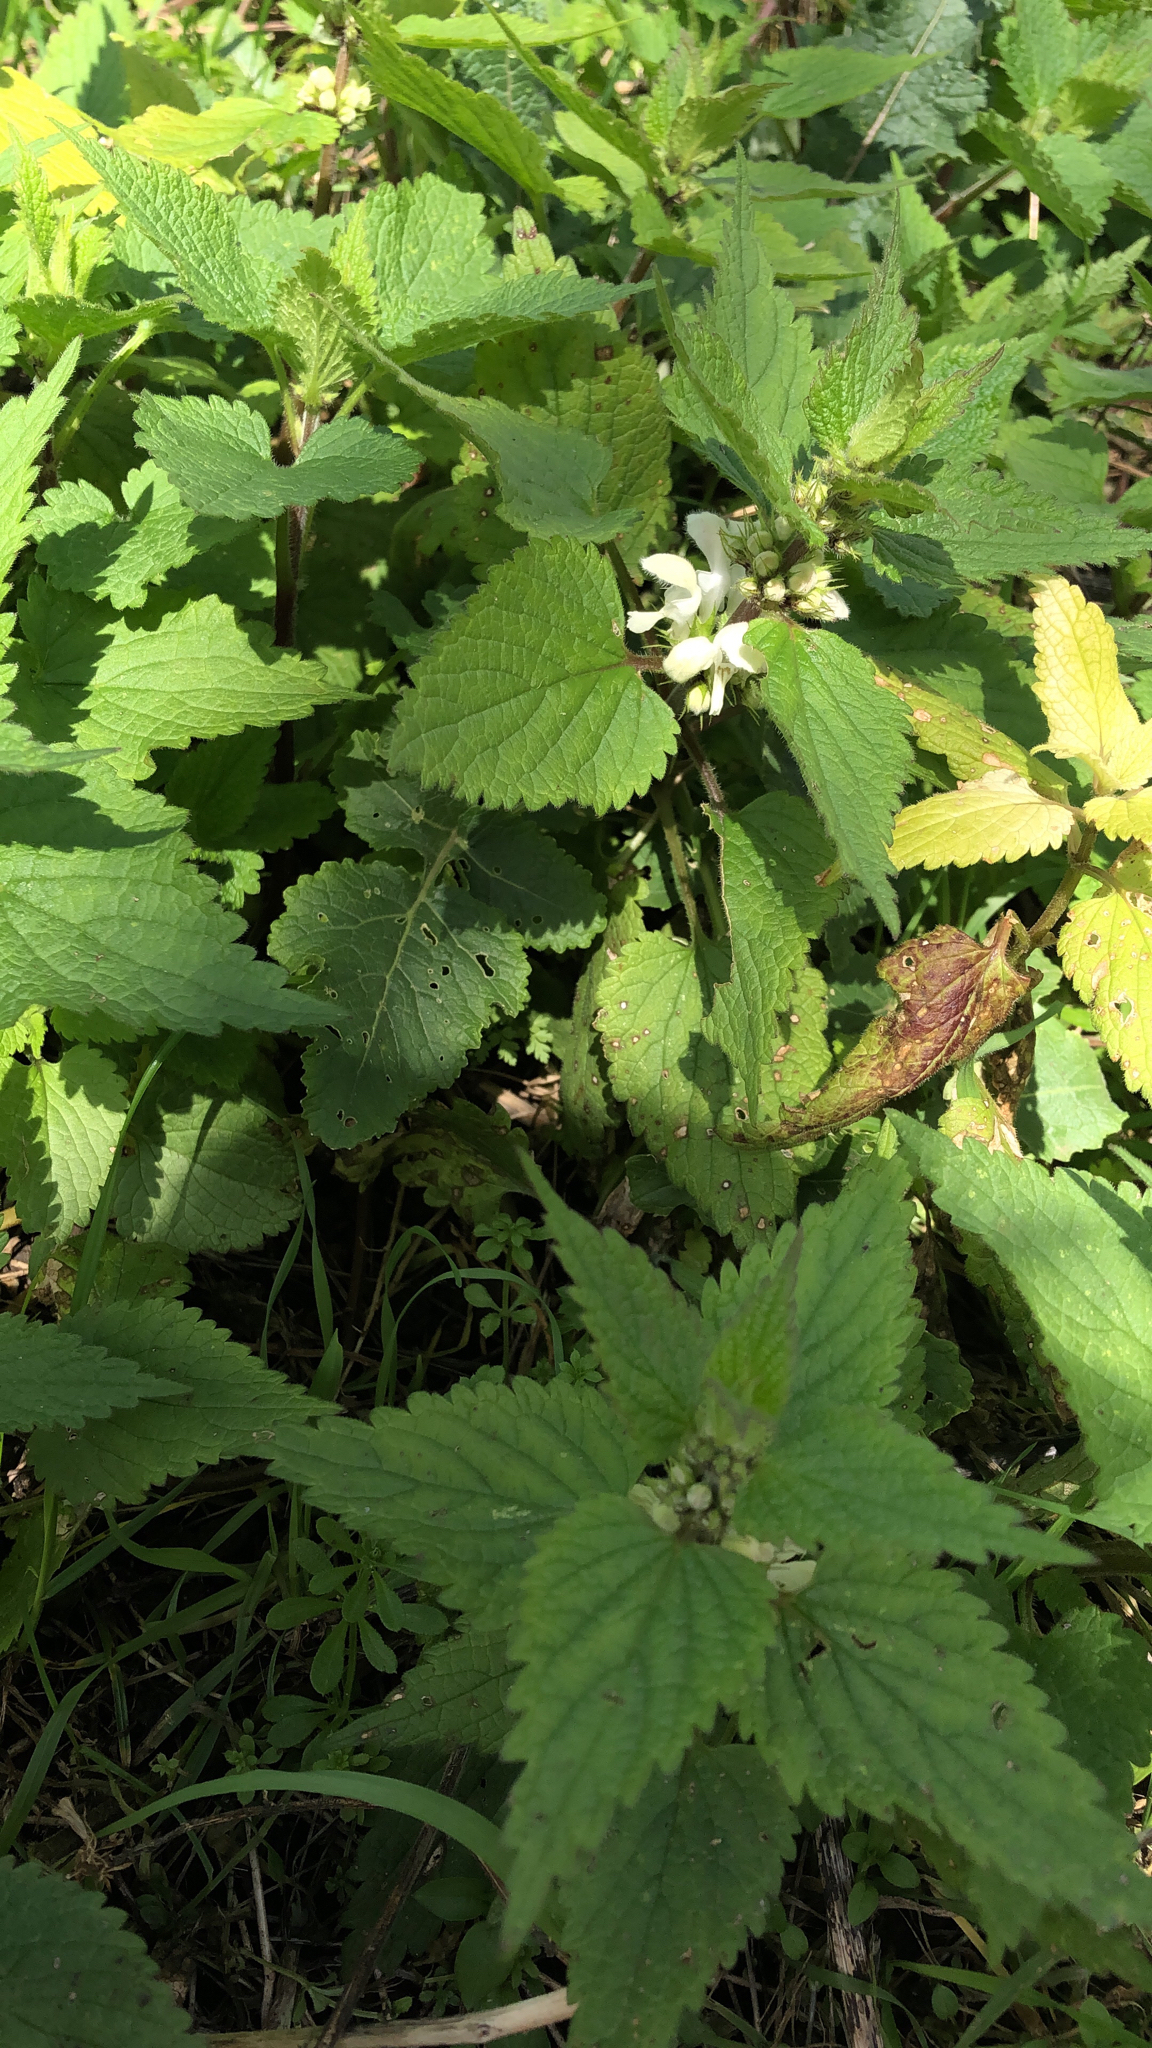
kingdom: Plantae
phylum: Tracheophyta
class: Magnoliopsida
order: Lamiales
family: Lamiaceae
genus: Lamium
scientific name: Lamium album
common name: White dead-nettle
